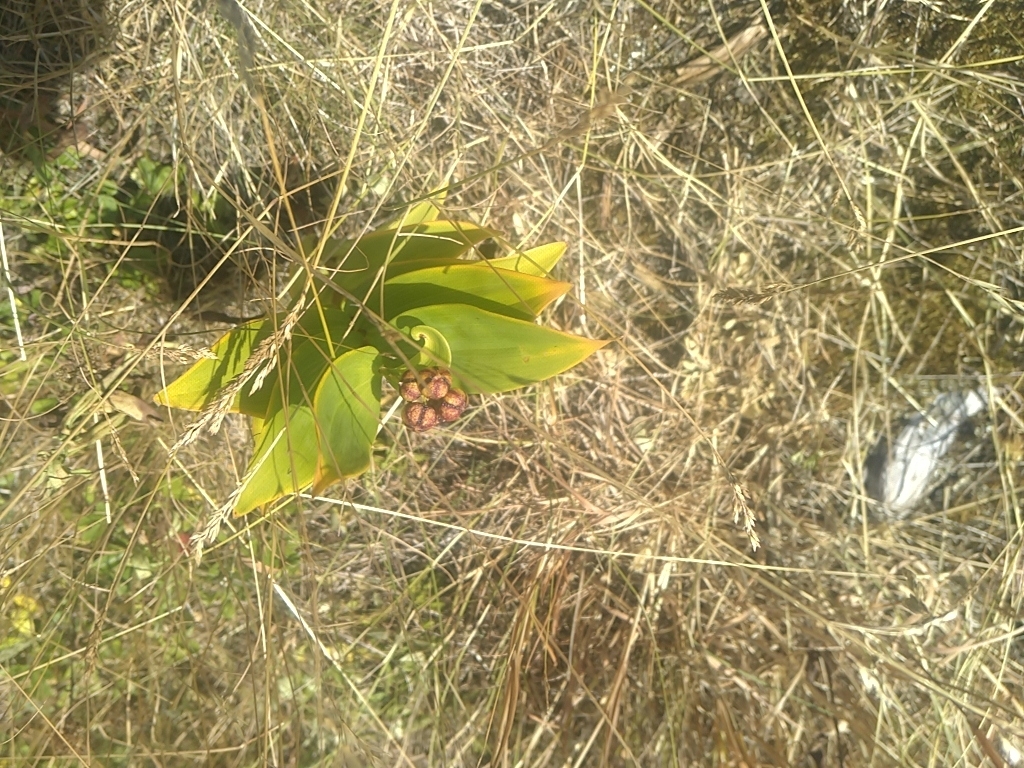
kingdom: Plantae
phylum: Tracheophyta
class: Liliopsida
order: Asparagales
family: Asparagaceae
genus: Maianthemum
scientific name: Maianthemum stellatum
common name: Little false solomon's seal
